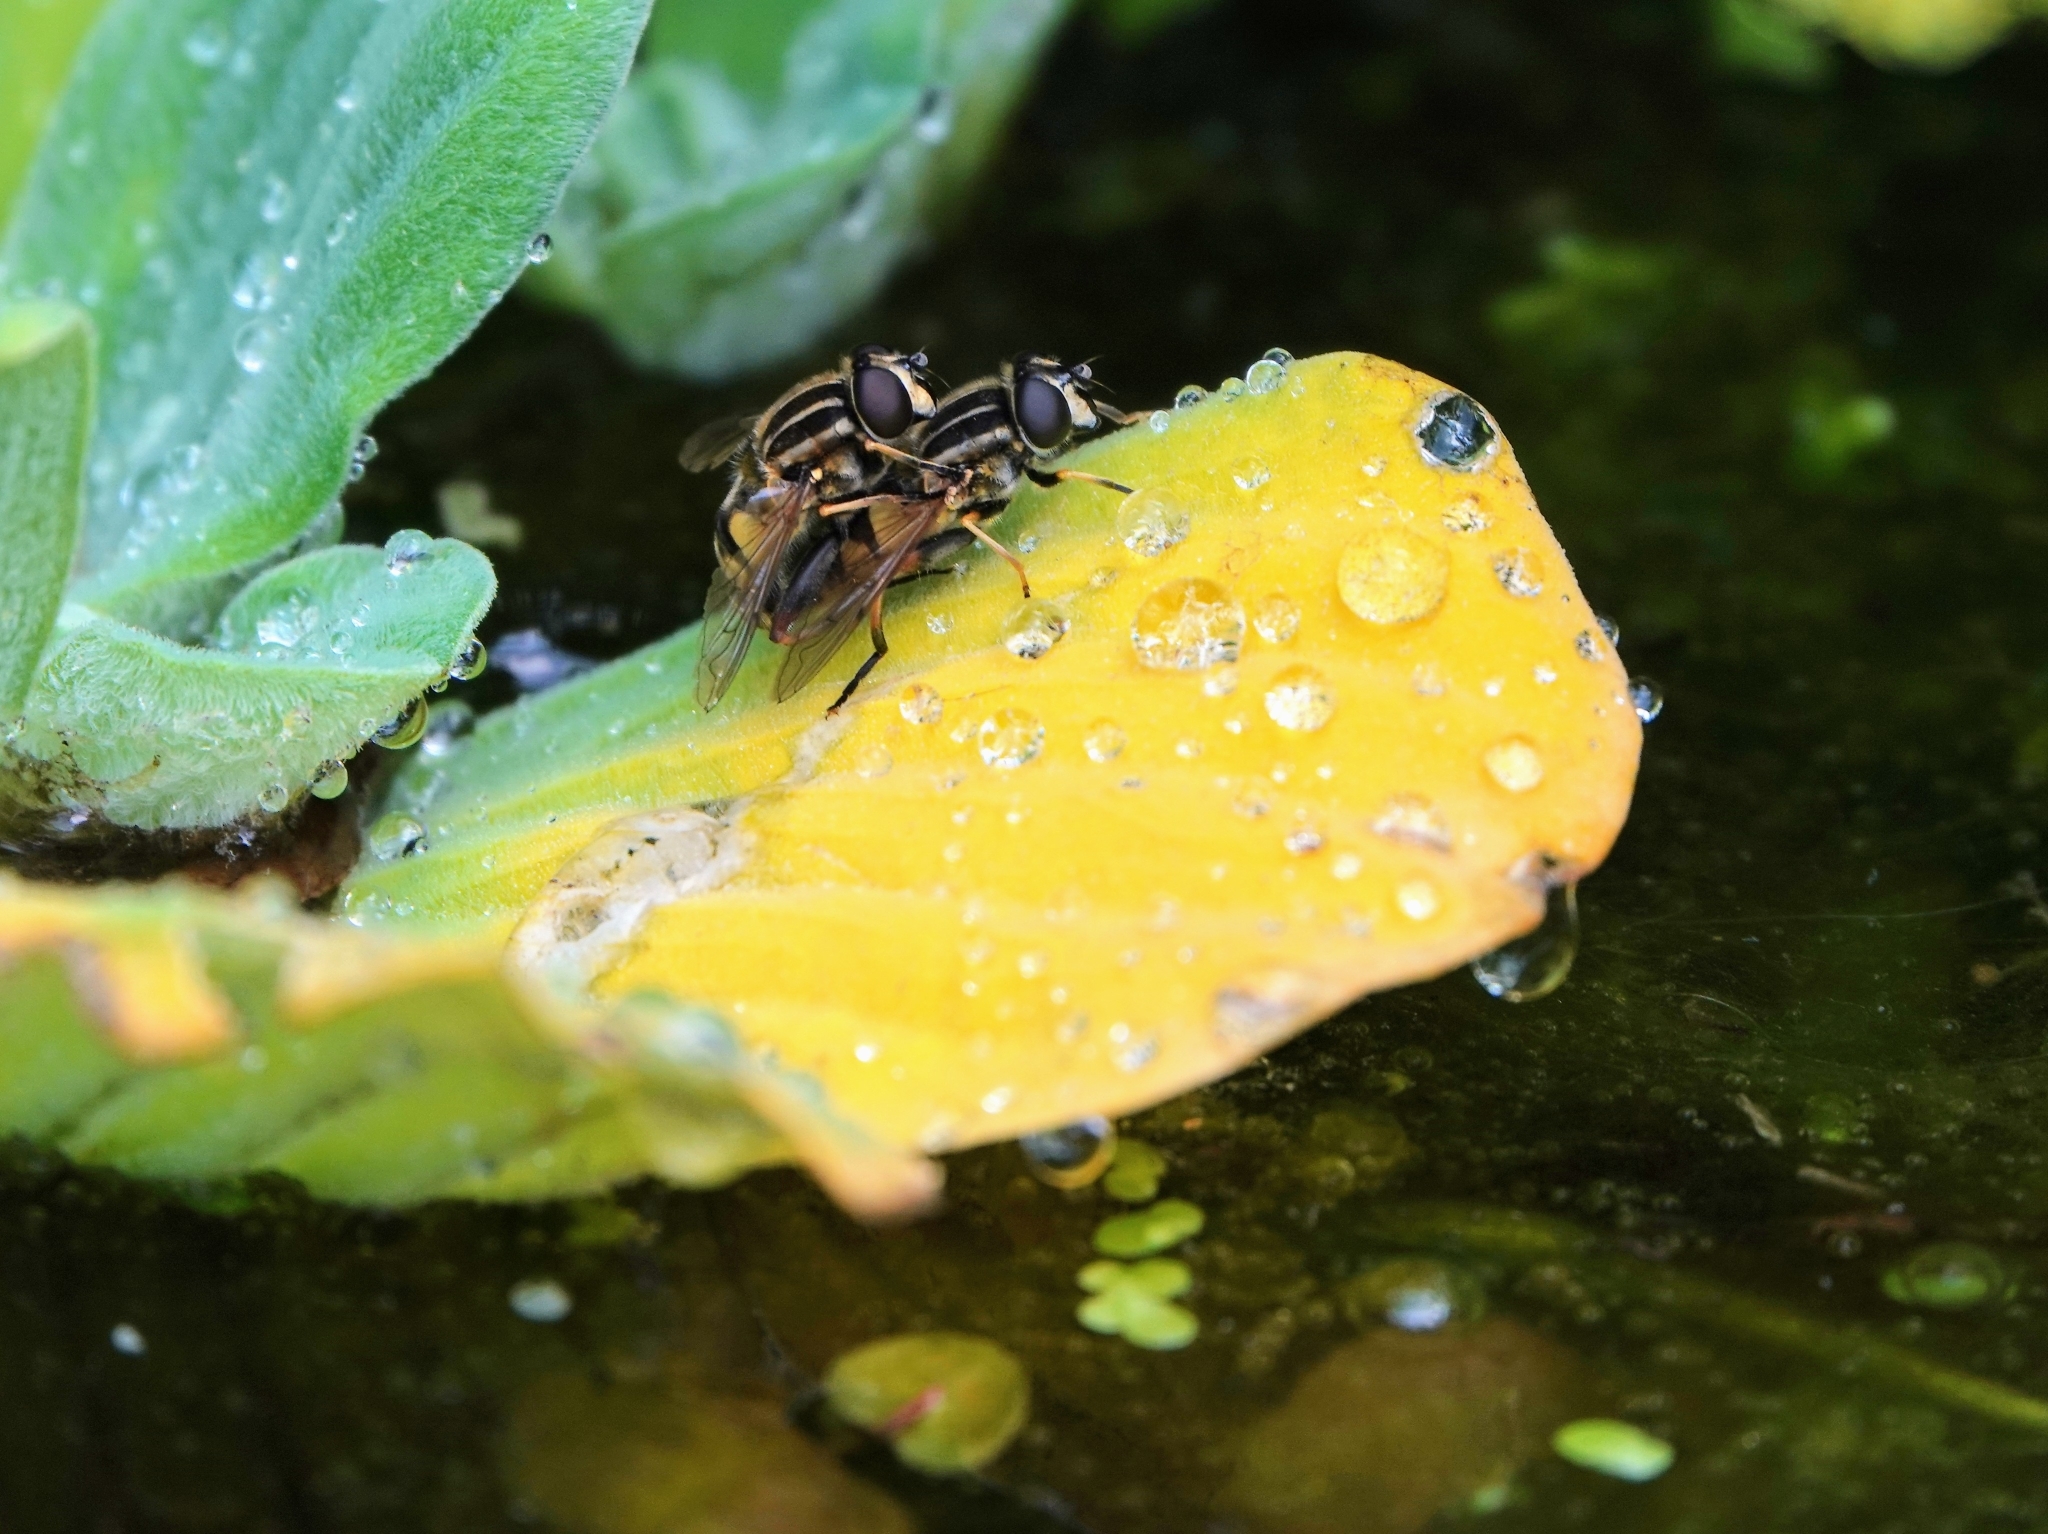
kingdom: Animalia
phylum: Arthropoda
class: Insecta
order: Diptera
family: Syrphidae
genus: Helophilus
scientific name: Helophilus pendulus
